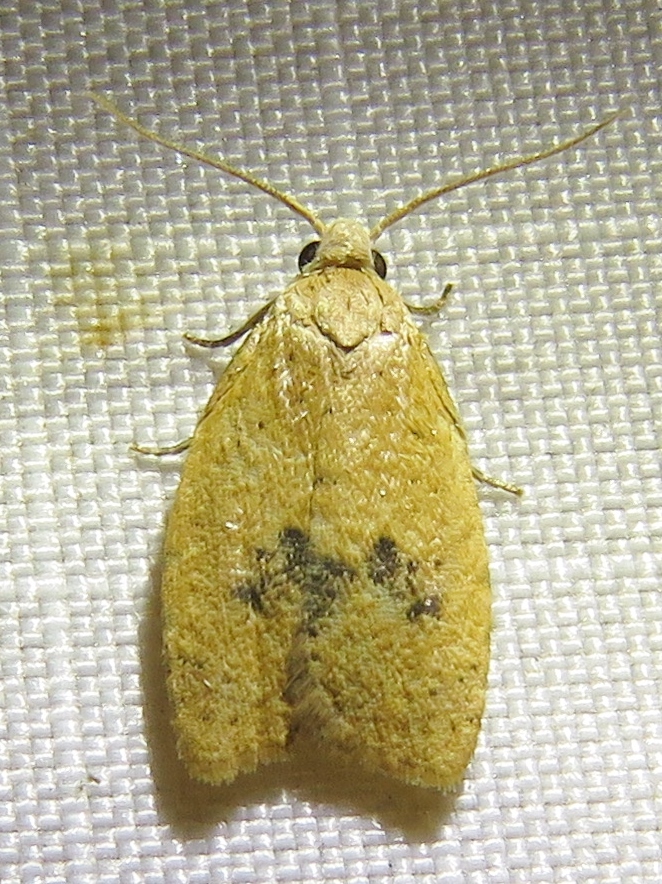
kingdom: Animalia
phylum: Arthropoda
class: Insecta
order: Lepidoptera
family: Tortricidae
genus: Sparganothoides
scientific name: Sparganothoides lentiginosana
